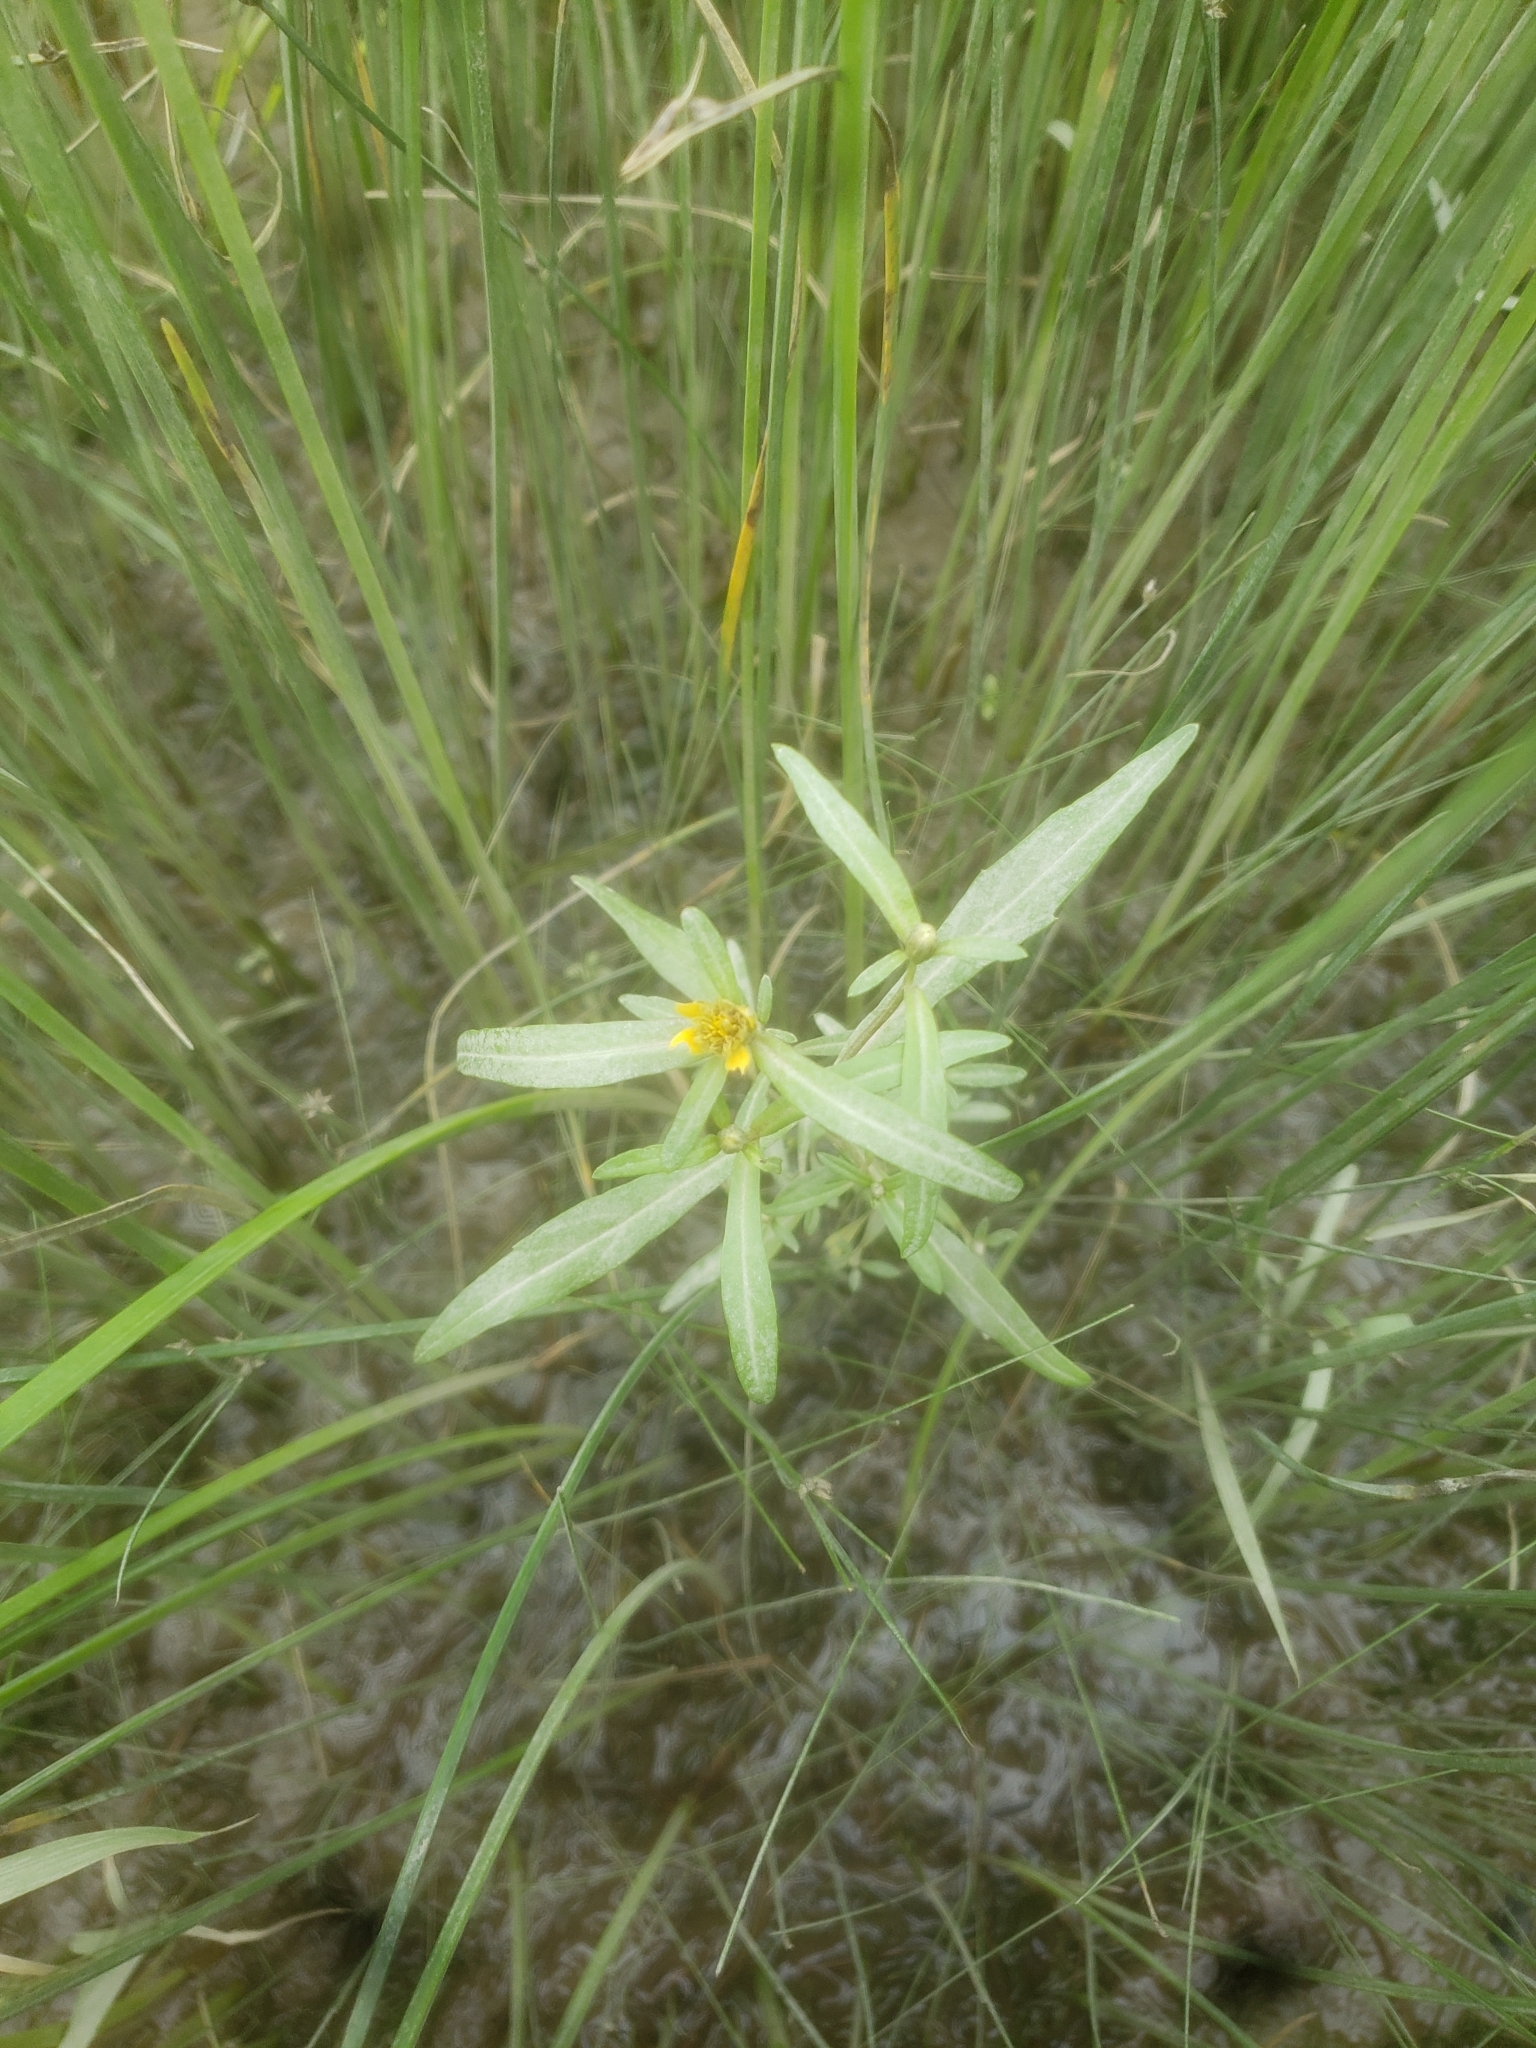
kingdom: Plantae
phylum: Tracheophyta
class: Magnoliopsida
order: Asterales
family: Asteraceae
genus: Bidens
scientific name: Bidens hyperborea
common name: Coastal beggarticks
